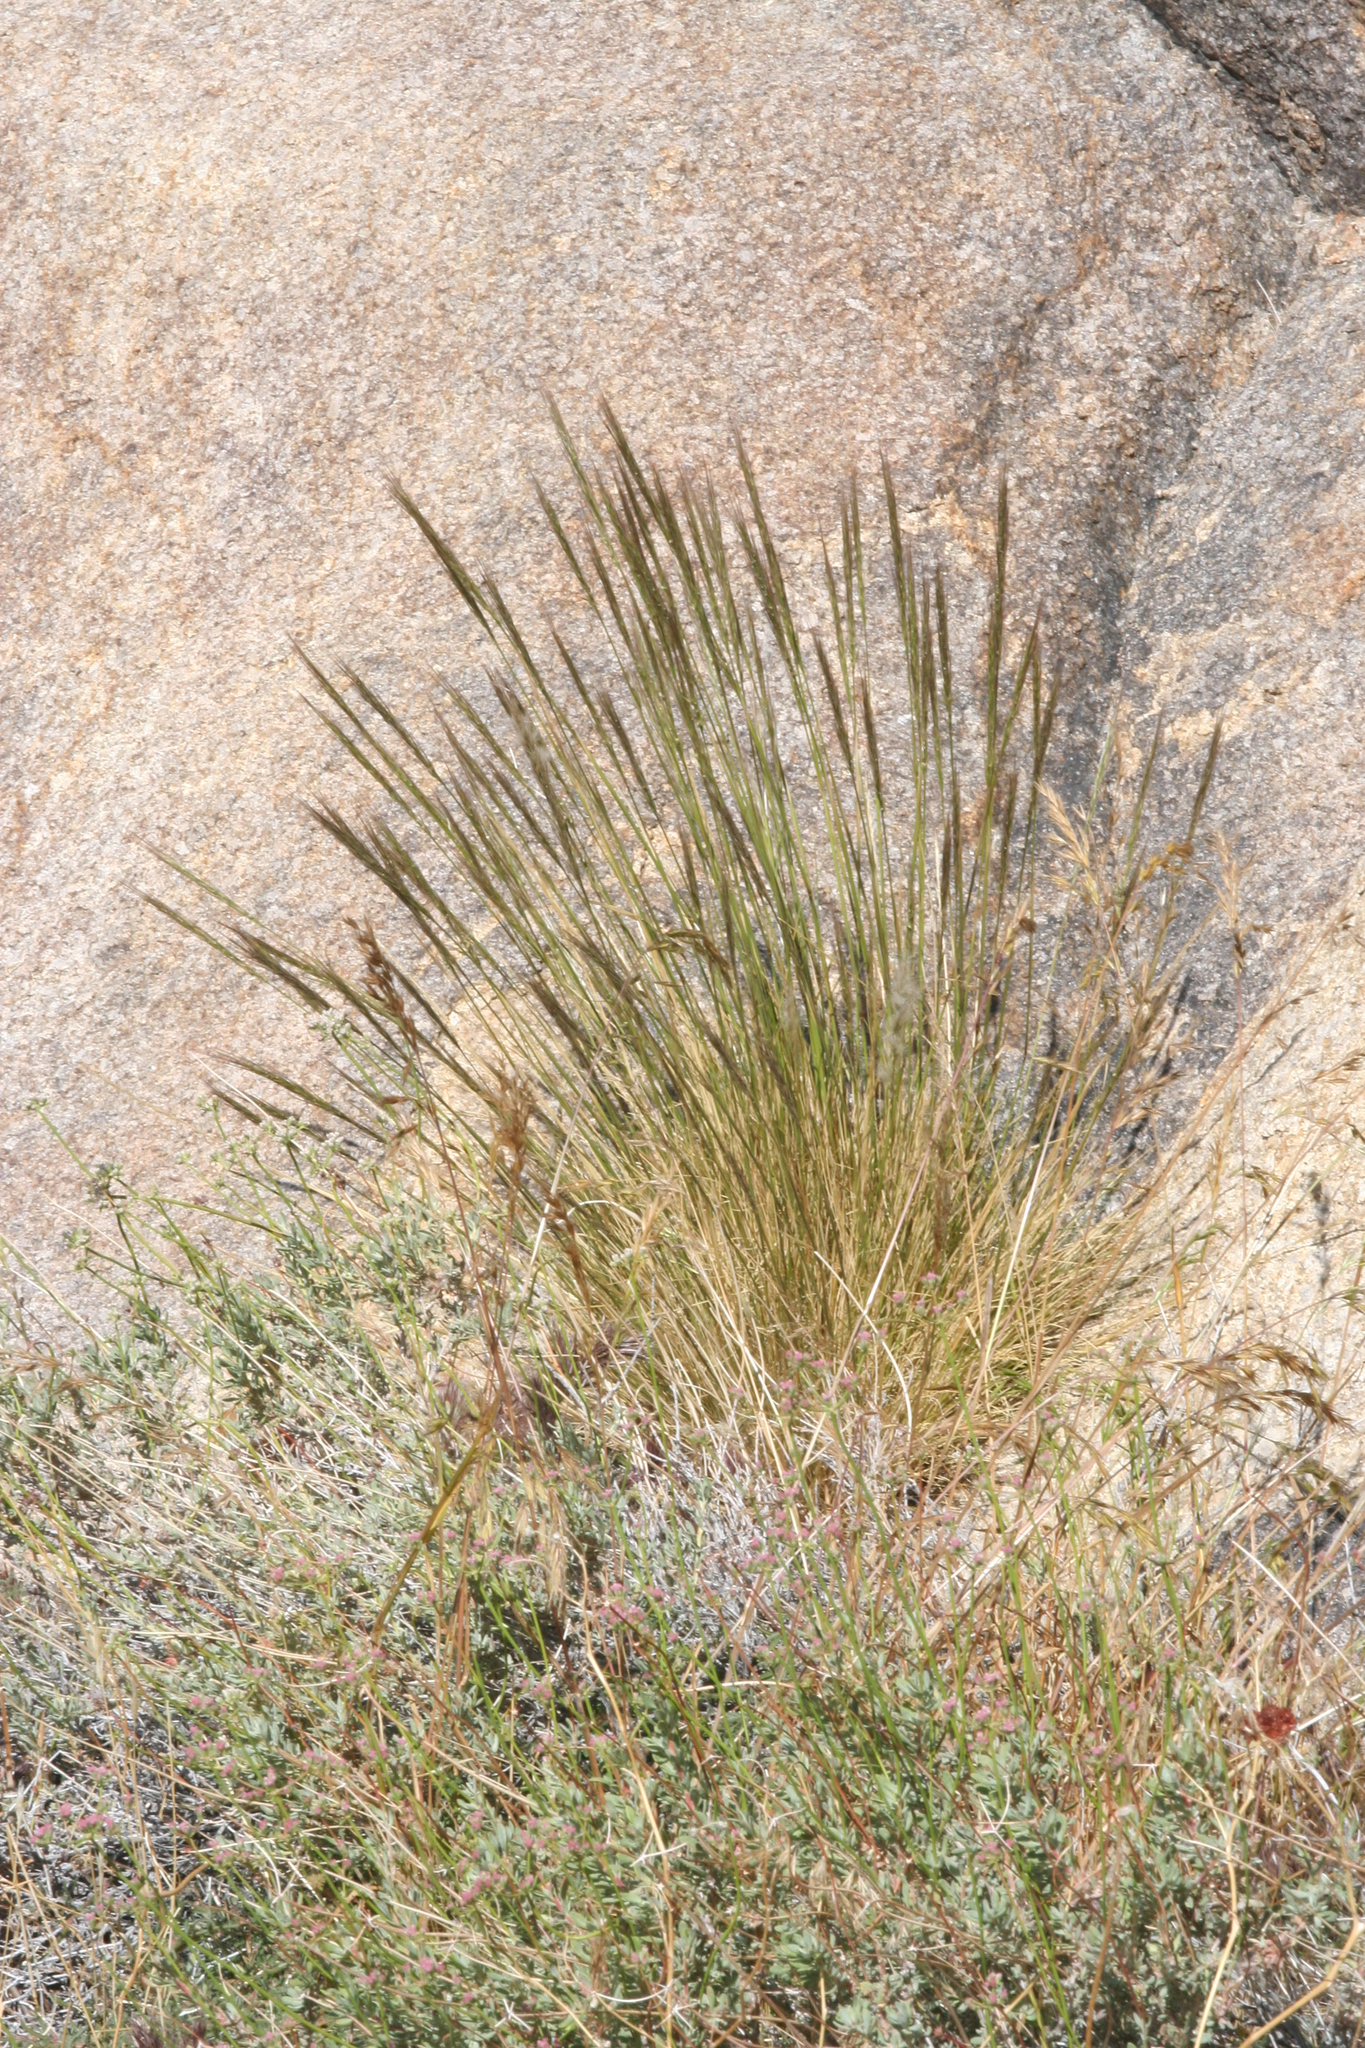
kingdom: Plantae
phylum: Tracheophyta
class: Liliopsida
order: Poales
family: Poaceae
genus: Elymus
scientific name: Elymus elymoides
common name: Bottlebrush squirreltail
